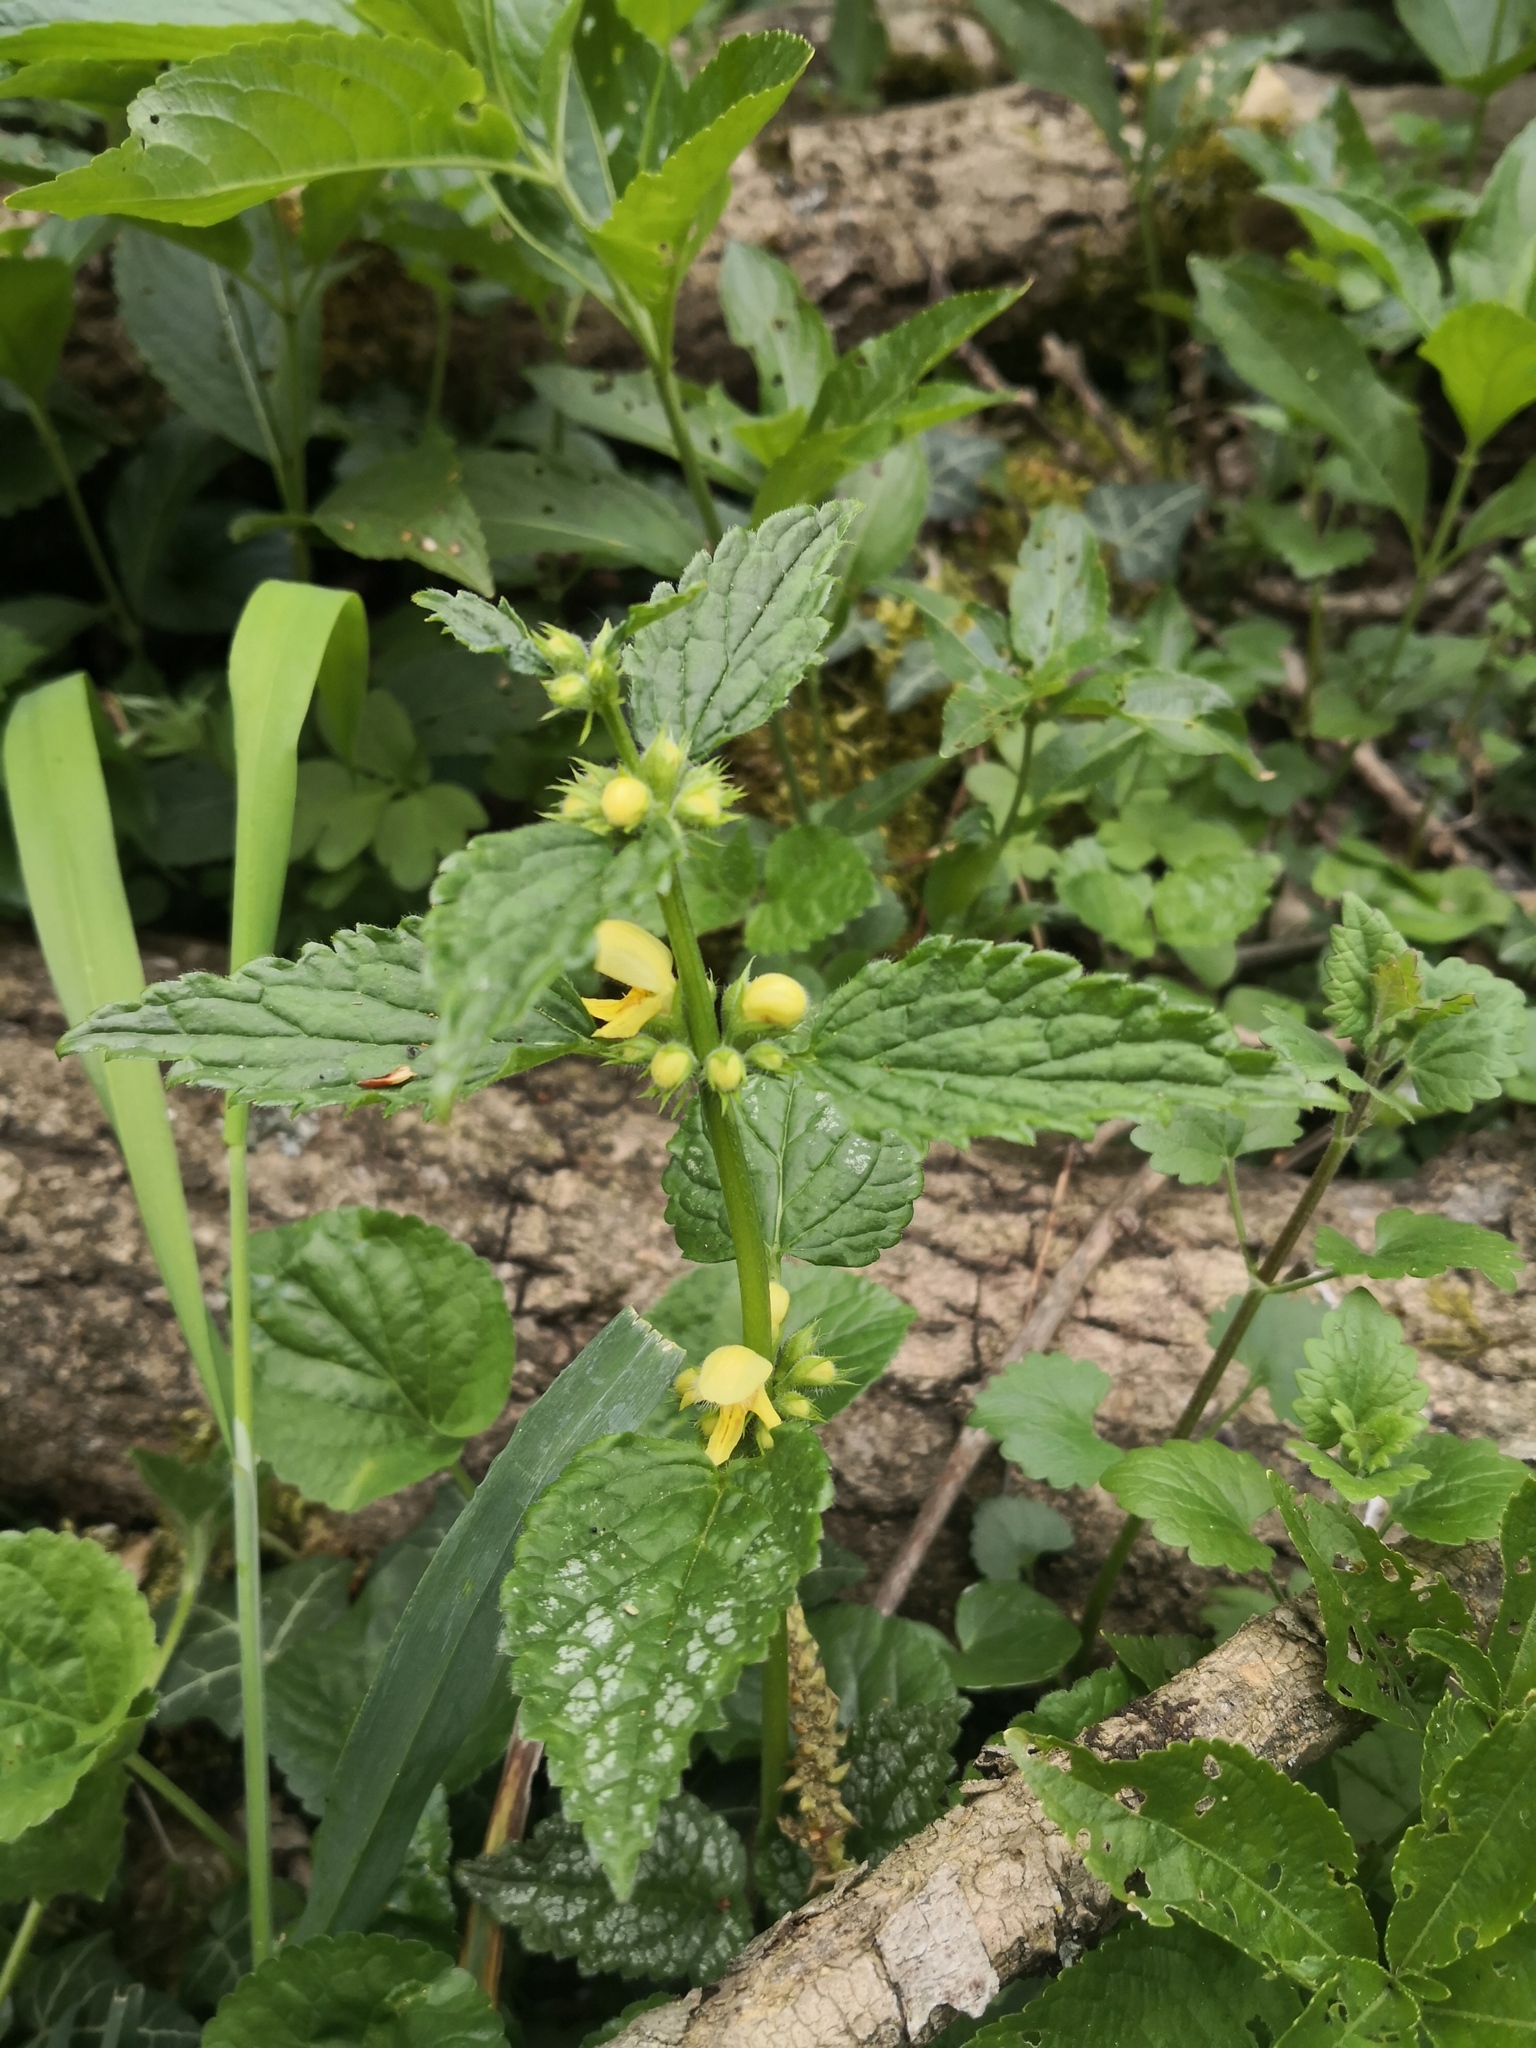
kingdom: Plantae
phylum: Tracheophyta
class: Magnoliopsida
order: Lamiales
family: Lamiaceae
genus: Lamium
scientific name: Lamium galeobdolon
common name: Yellow archangel
